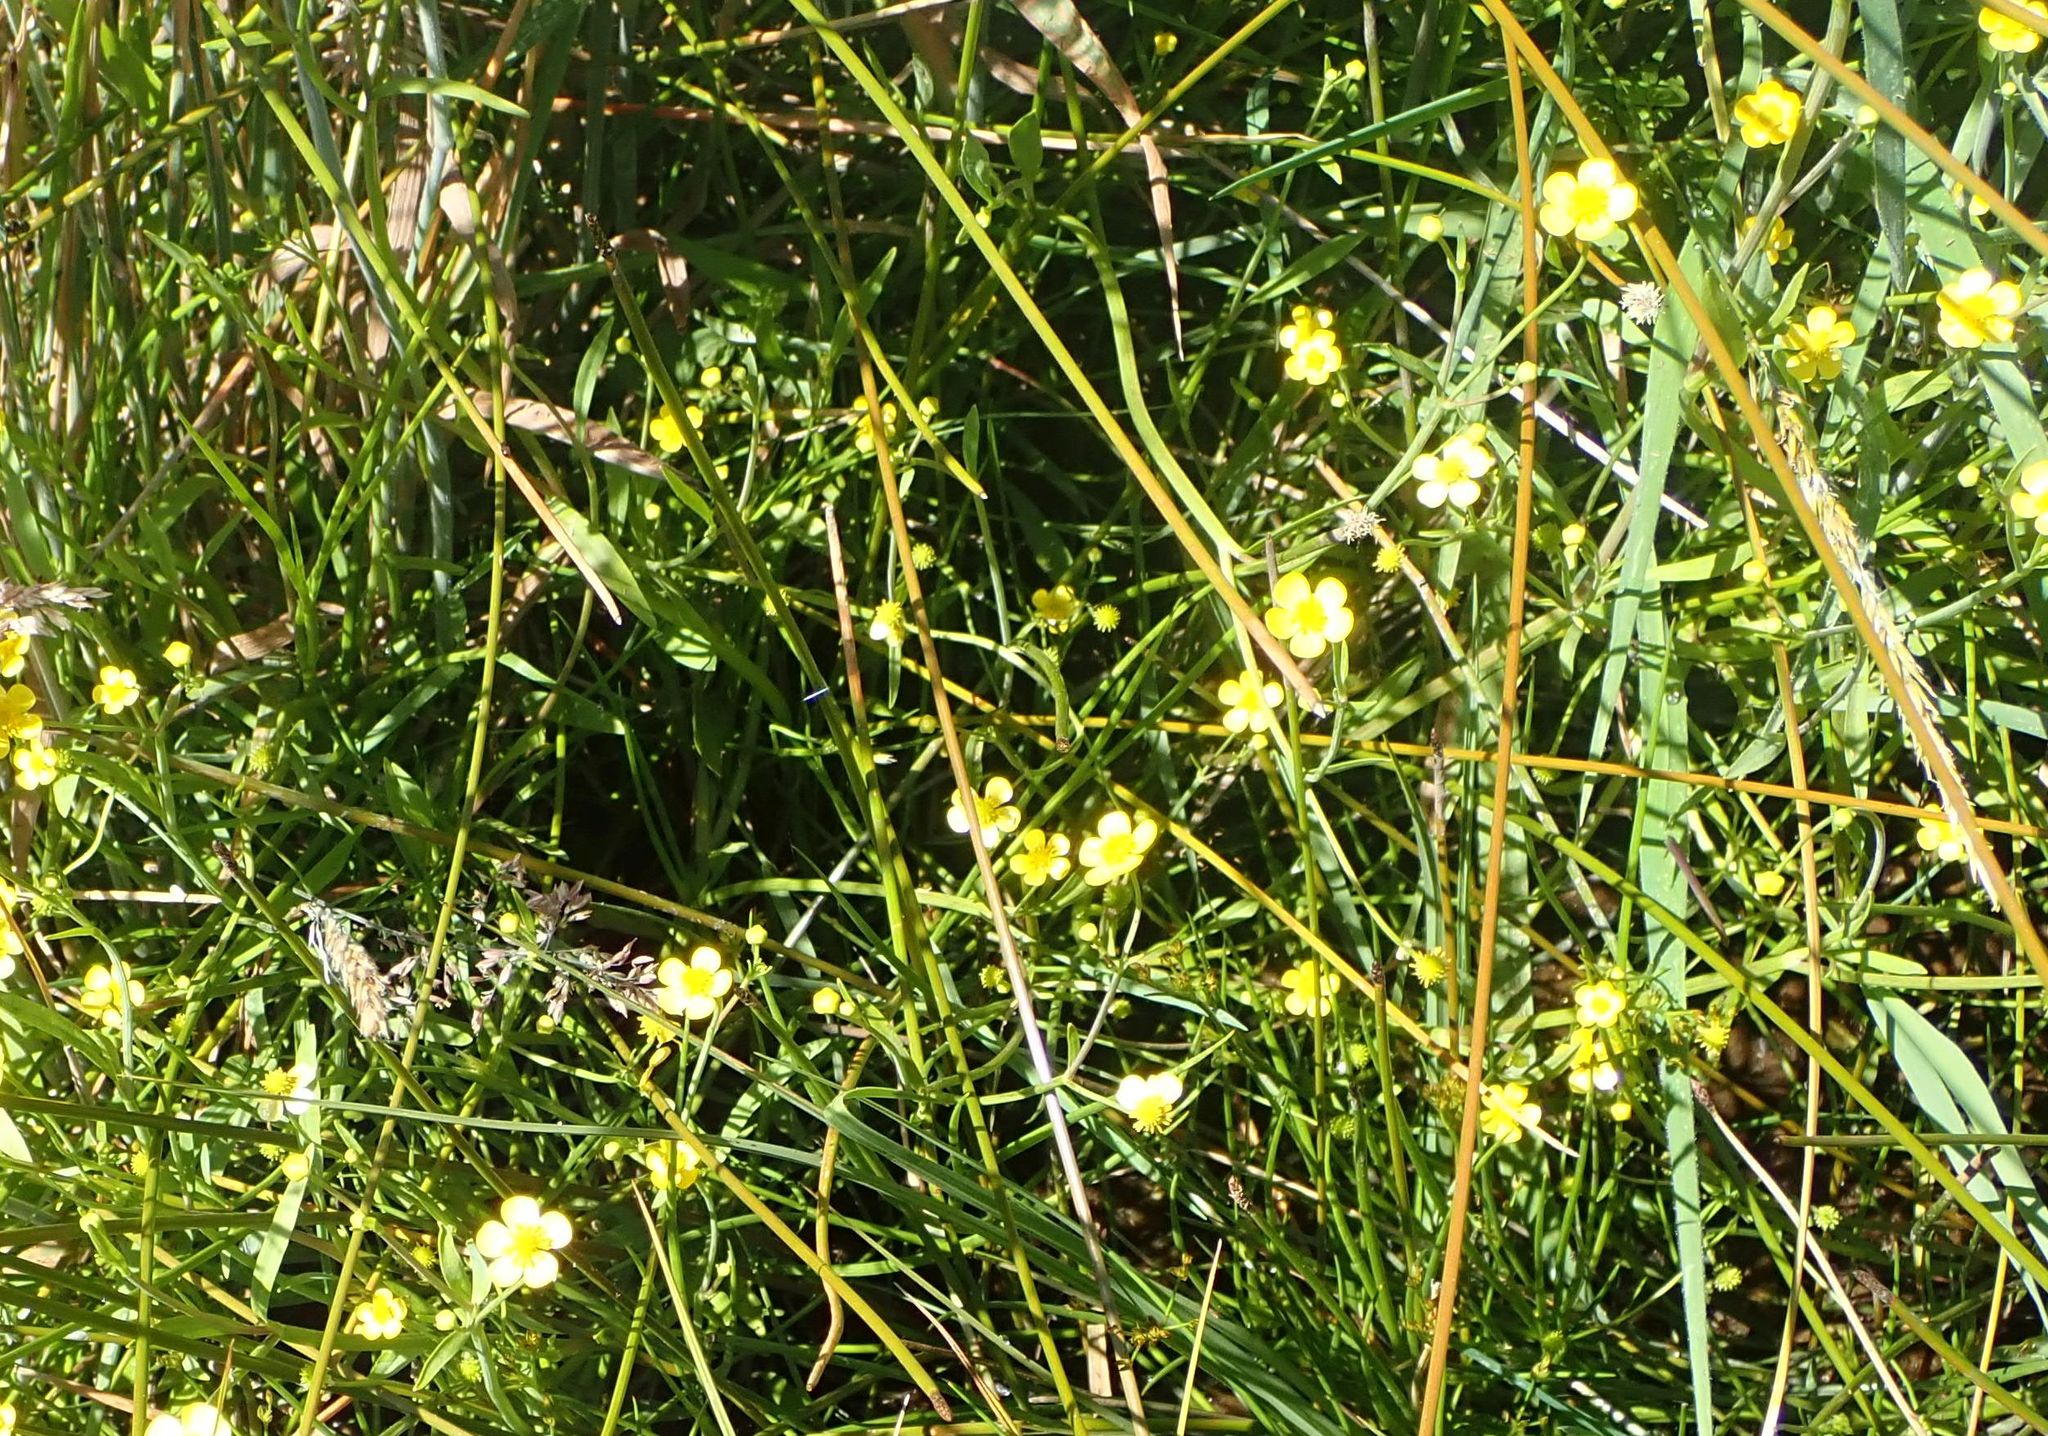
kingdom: Plantae
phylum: Tracheophyta
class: Magnoliopsida
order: Ranunculales
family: Ranunculaceae
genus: Ranunculus
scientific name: Ranunculus flammula
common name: Lesser spearwort
